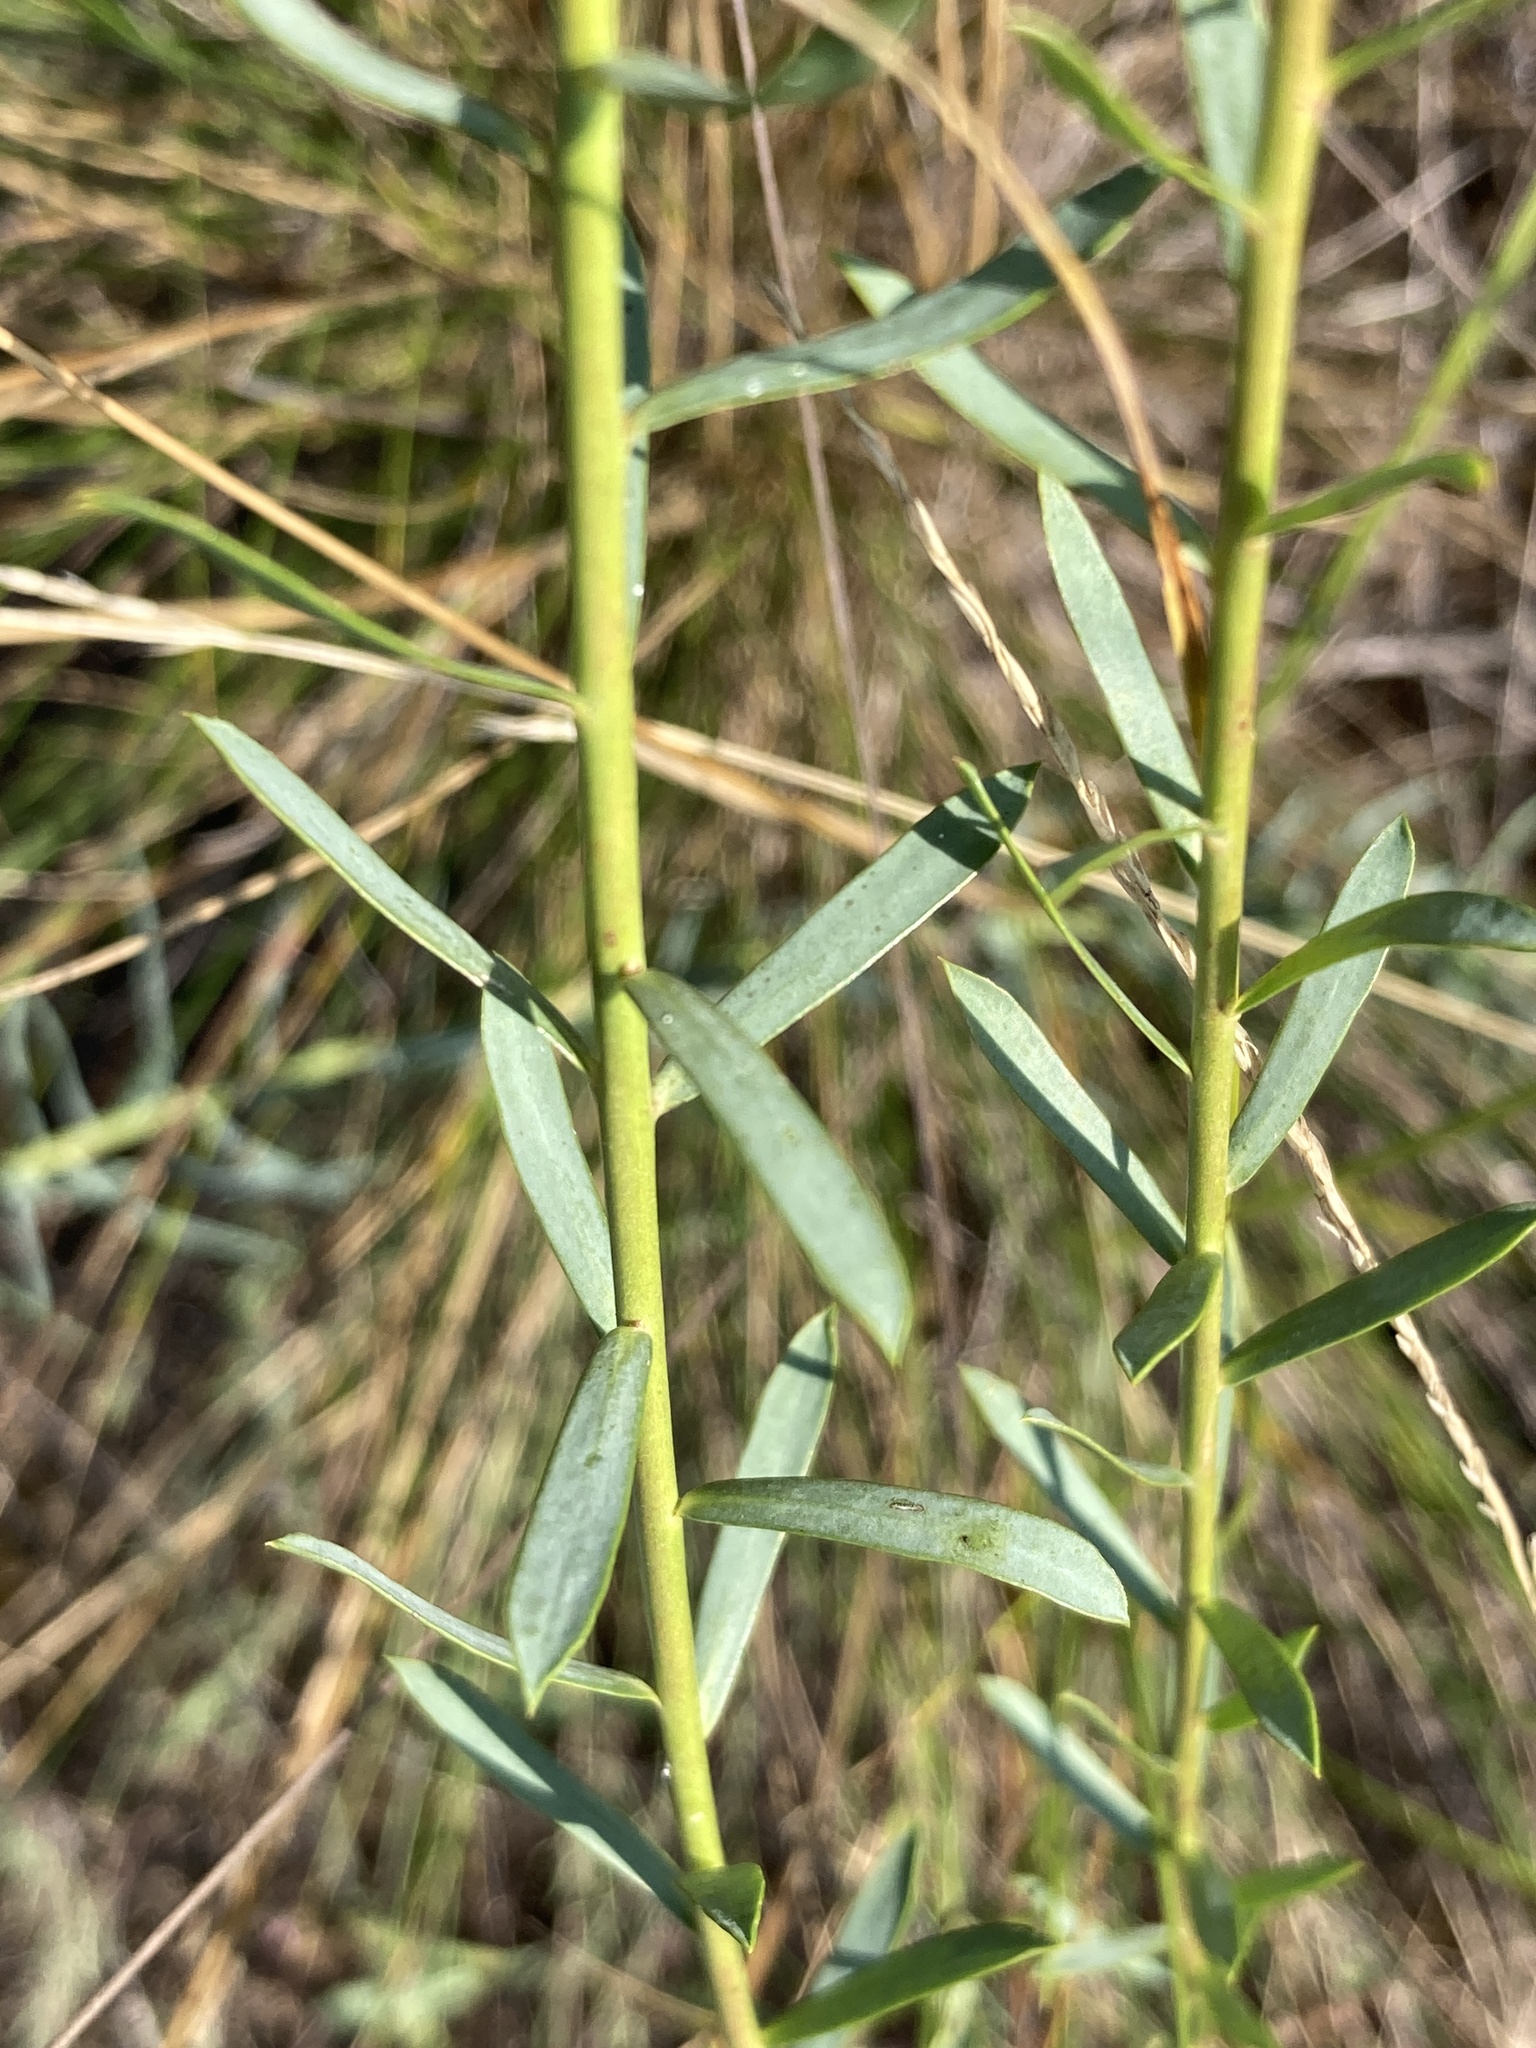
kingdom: Plantae
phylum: Tracheophyta
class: Magnoliopsida
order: Malpighiales
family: Euphorbiaceae
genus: Euphorbia
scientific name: Euphorbia seguieriana
